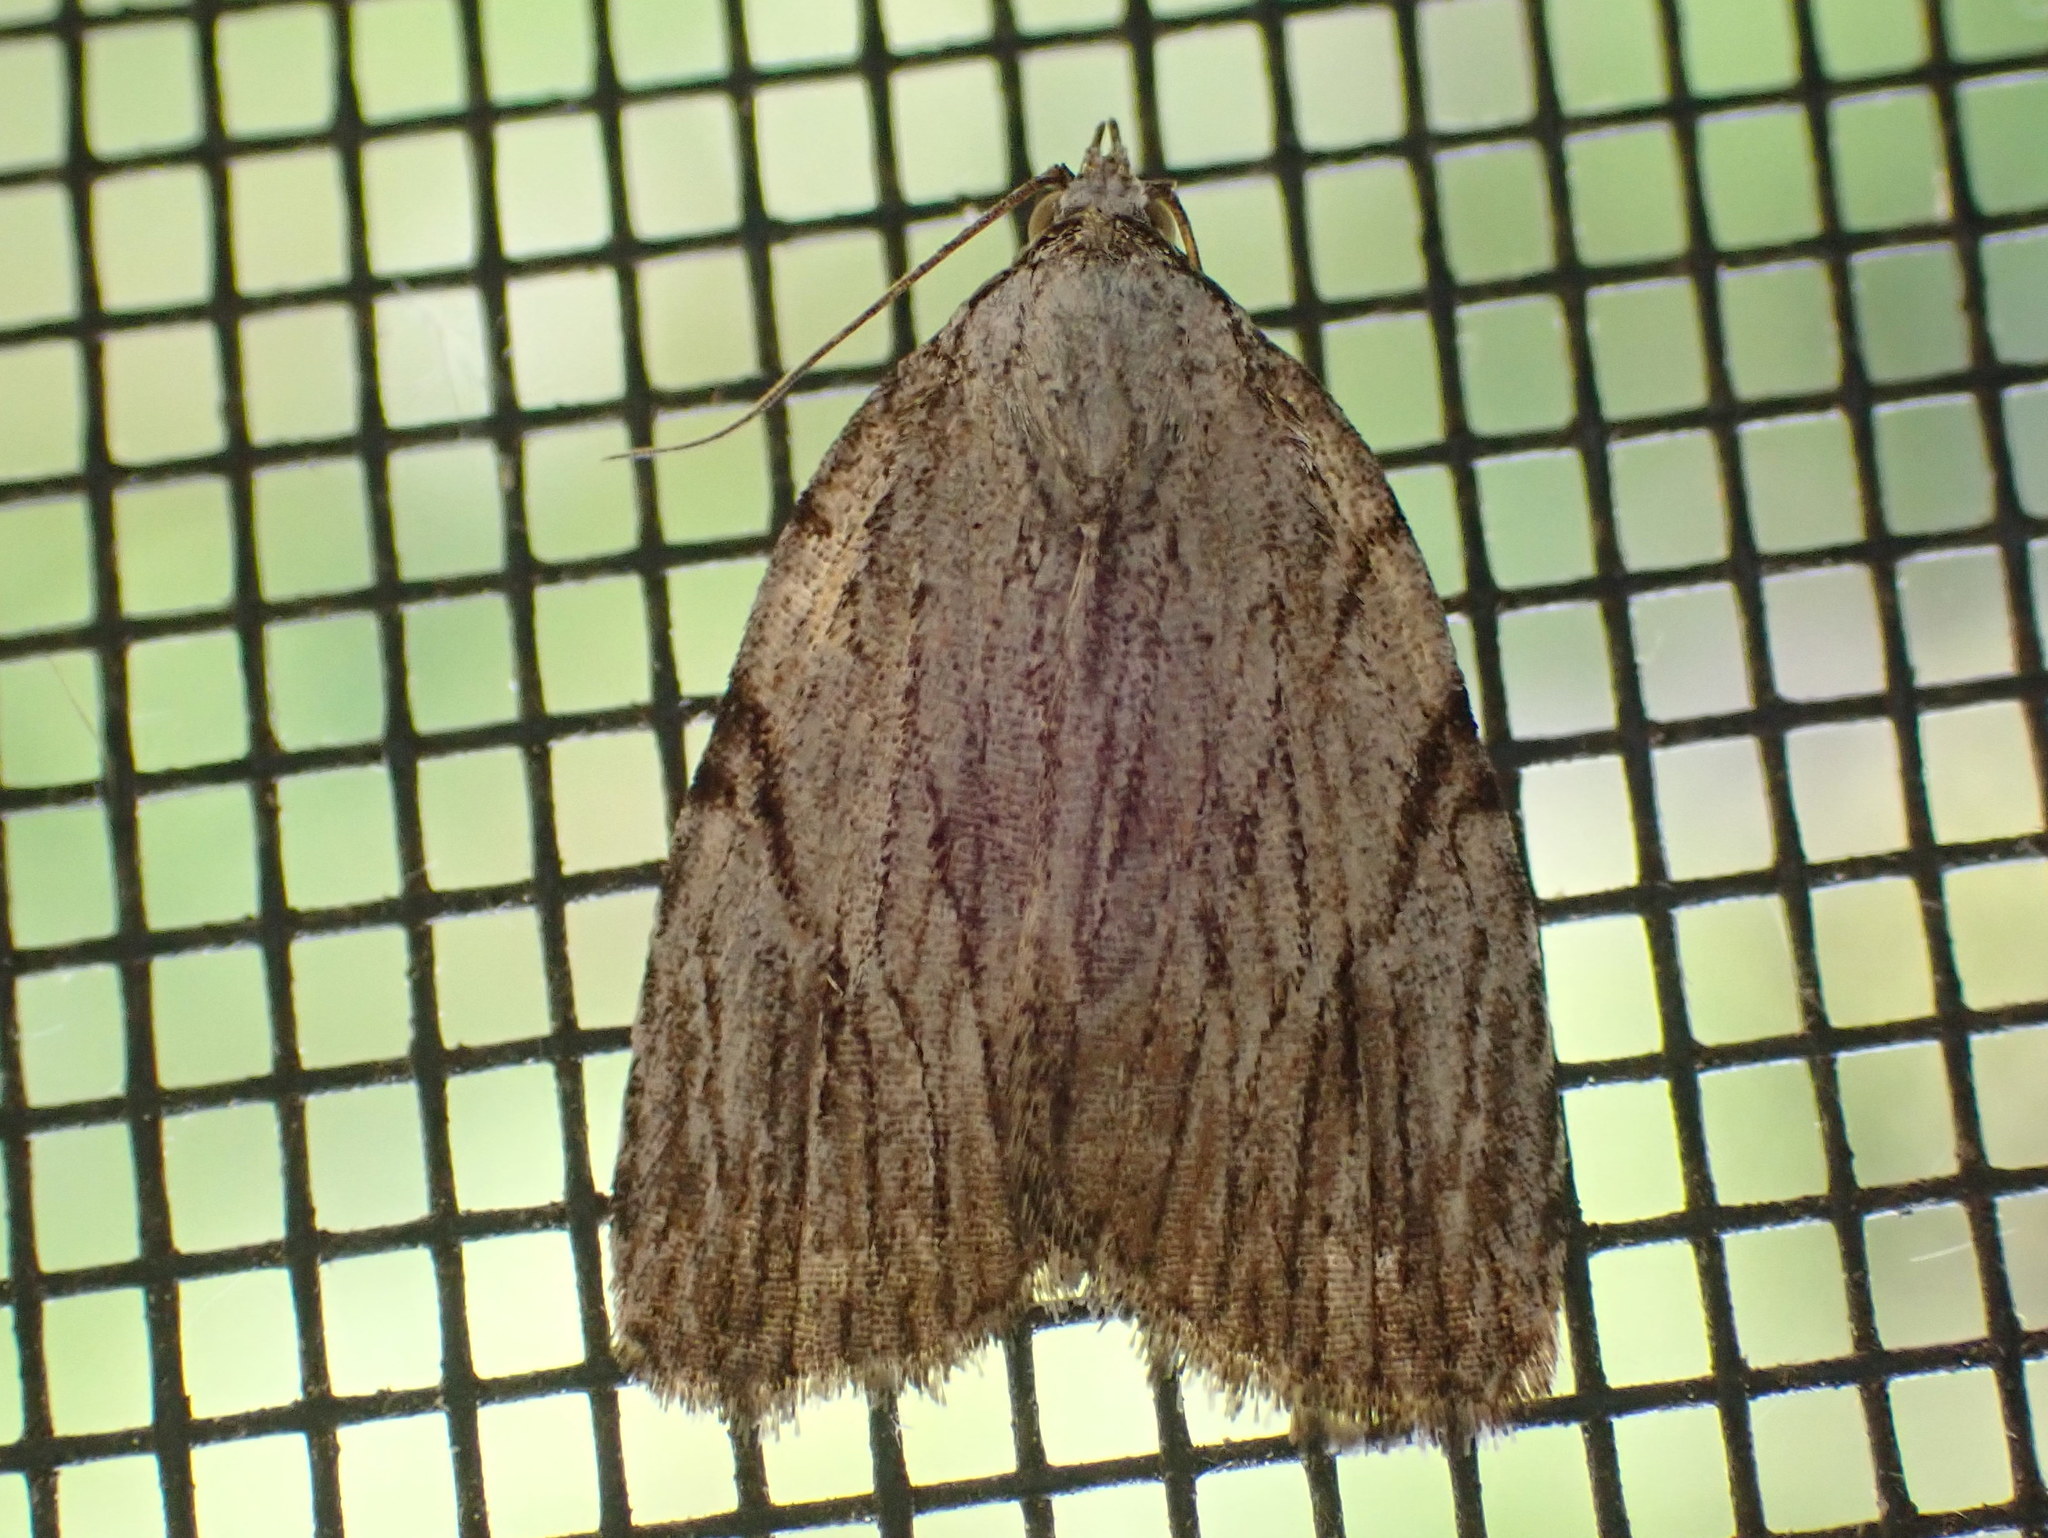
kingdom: Animalia
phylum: Arthropoda
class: Insecta
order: Lepidoptera
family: Noctuidae
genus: Balsa
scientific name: Balsa tristrigella
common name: Three-lined balsa moth
